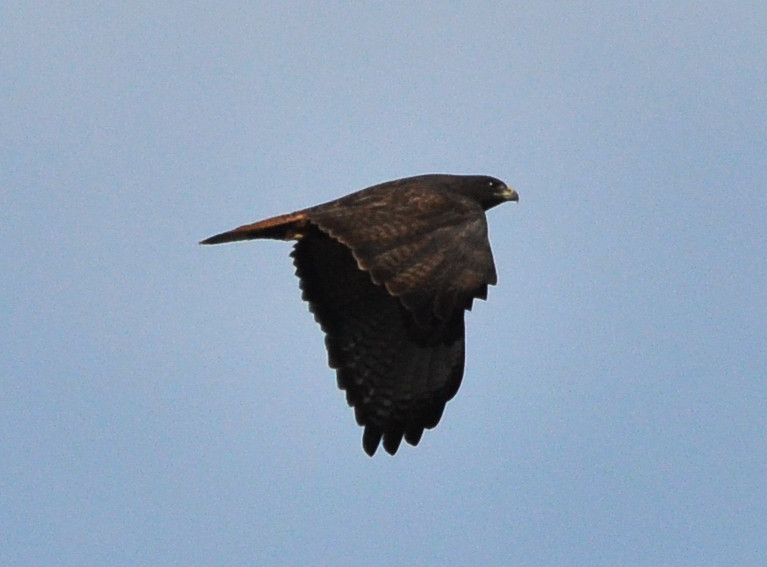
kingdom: Animalia
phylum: Chordata
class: Aves
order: Accipitriformes
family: Accipitridae
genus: Buteo
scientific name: Buteo jamaicensis
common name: Red-tailed hawk
